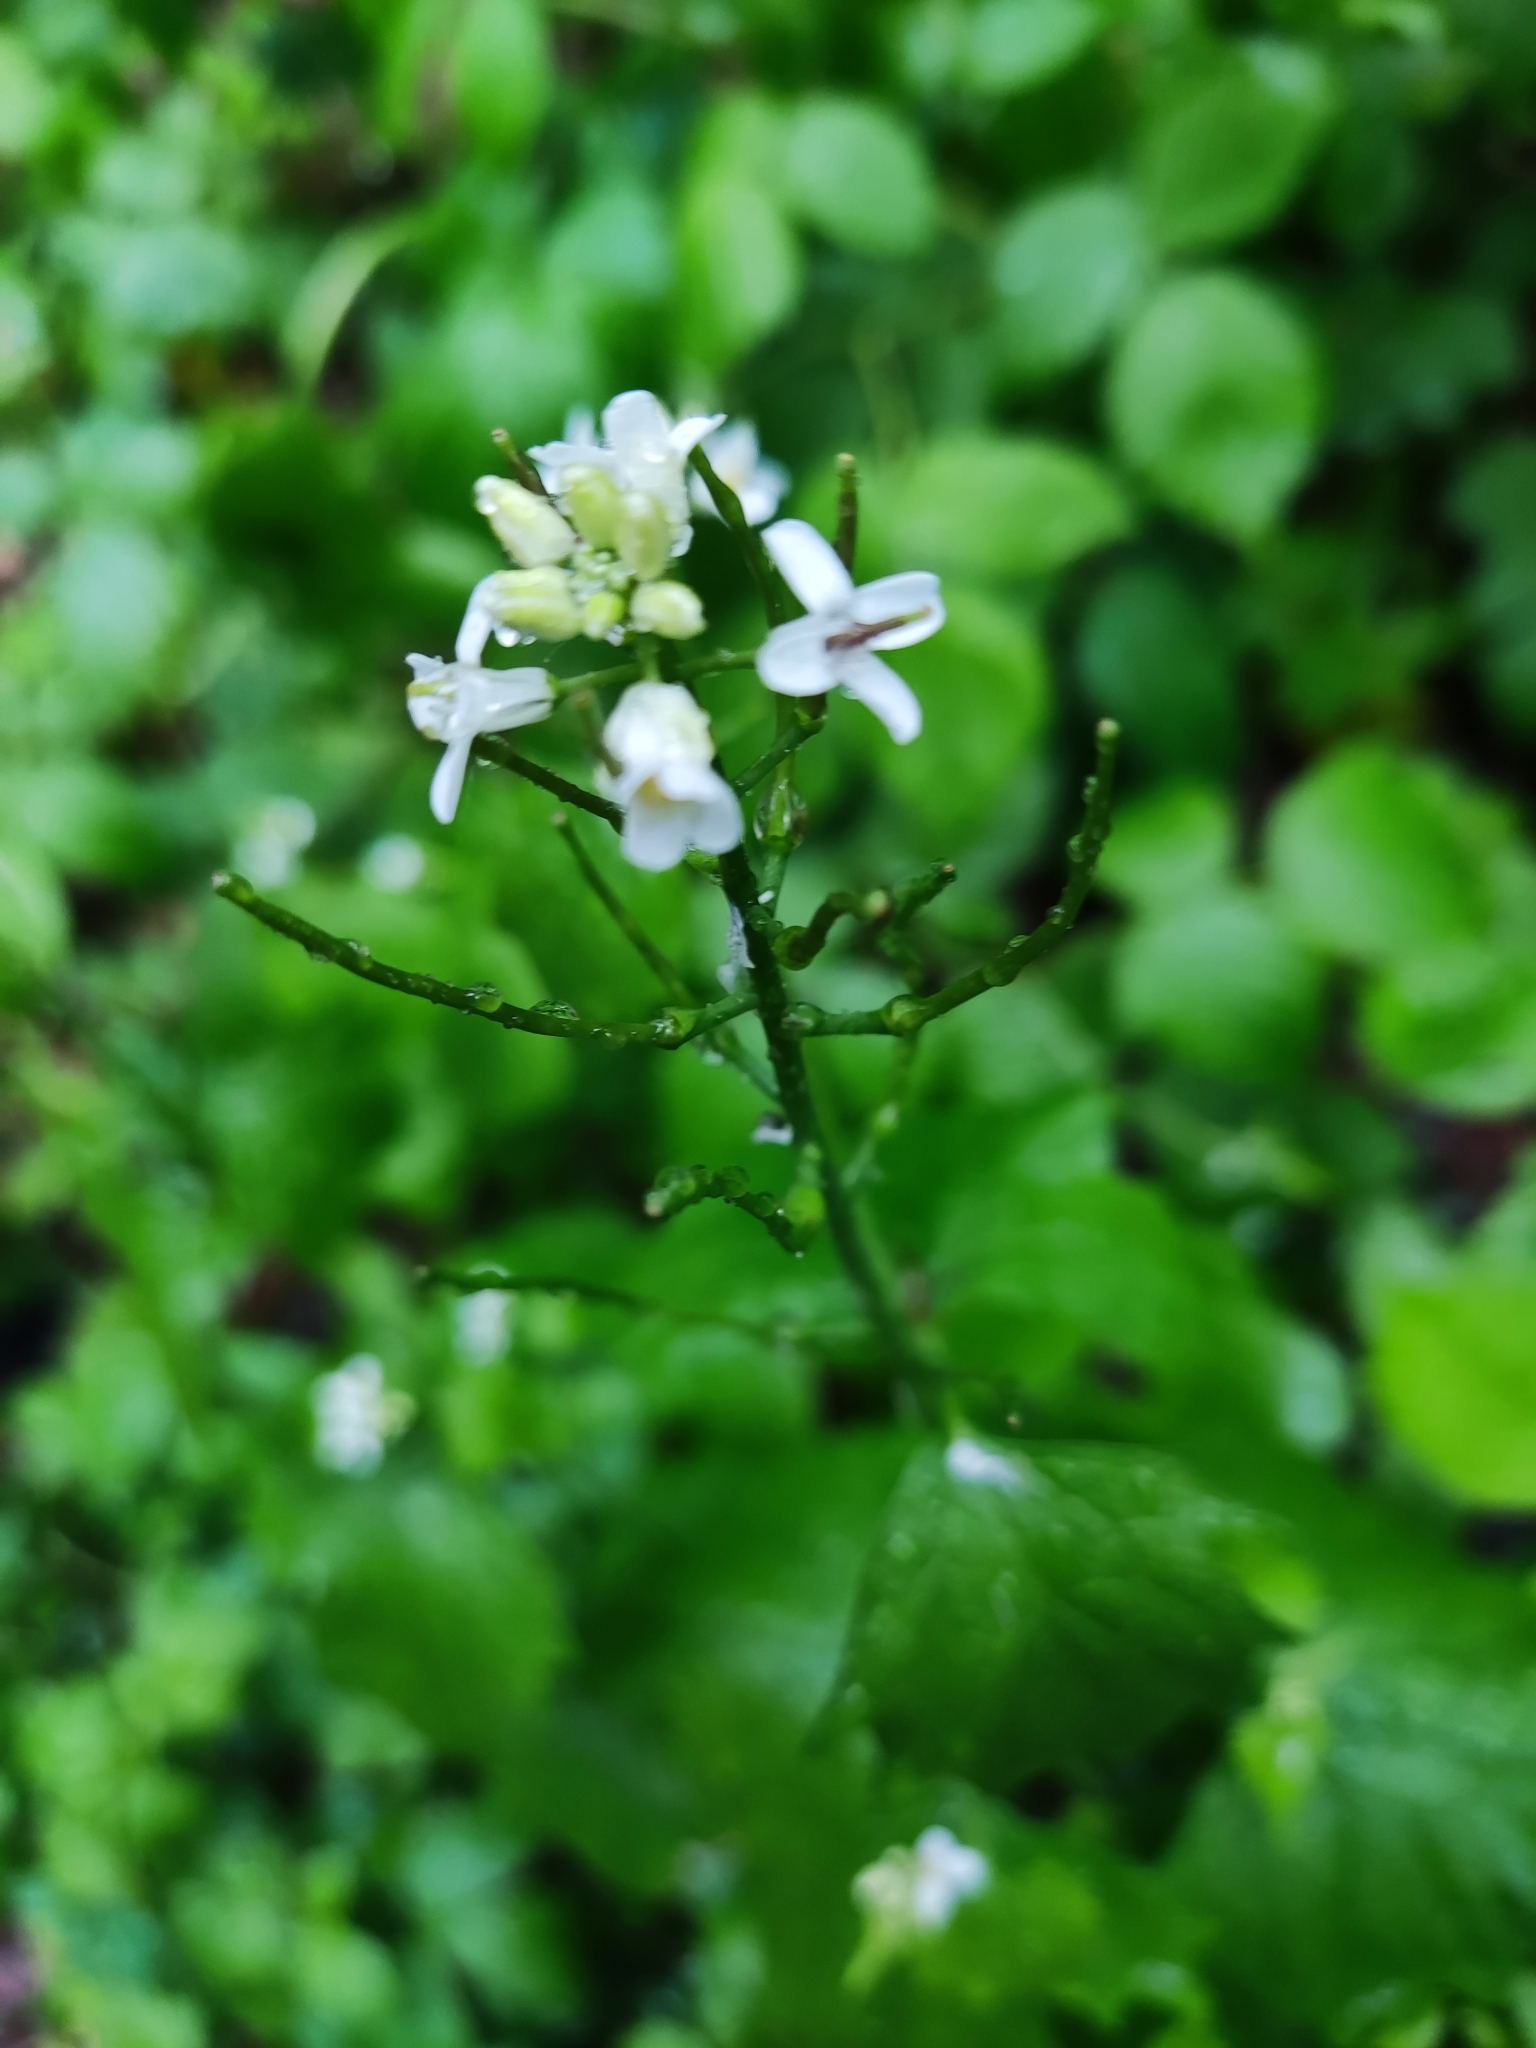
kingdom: Plantae
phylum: Tracheophyta
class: Magnoliopsida
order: Brassicales
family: Brassicaceae
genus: Alliaria
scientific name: Alliaria petiolata
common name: Garlic mustard
